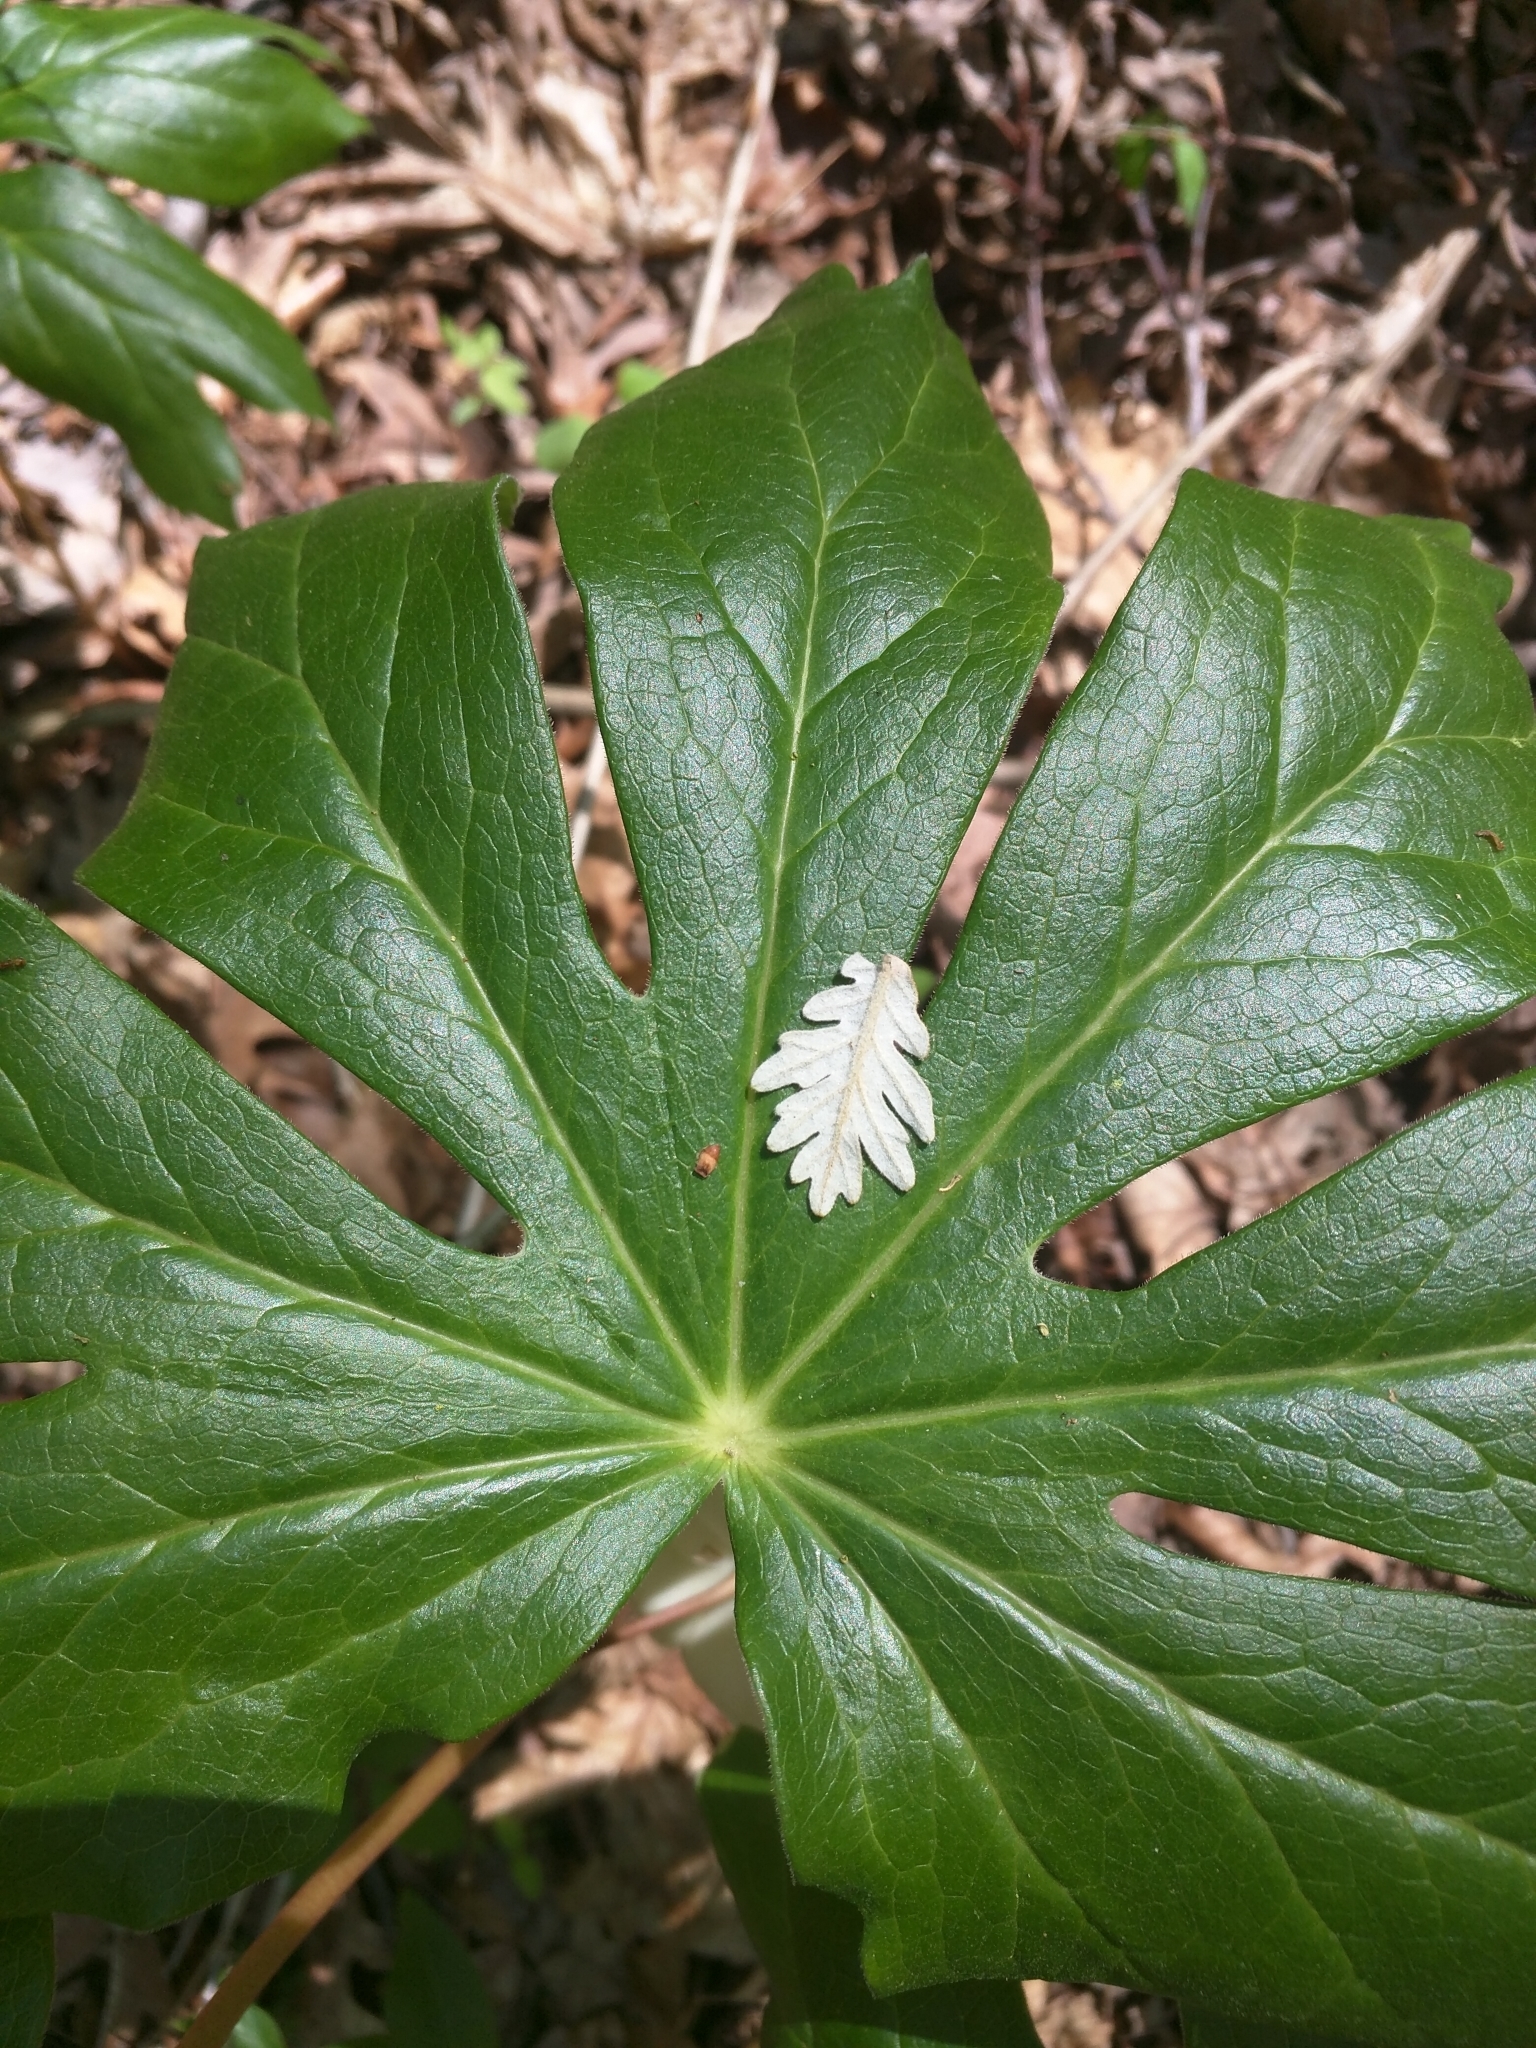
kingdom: Plantae
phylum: Tracheophyta
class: Magnoliopsida
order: Ranunculales
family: Berberidaceae
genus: Podophyllum
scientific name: Podophyllum peltatum
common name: Wild mandrake
